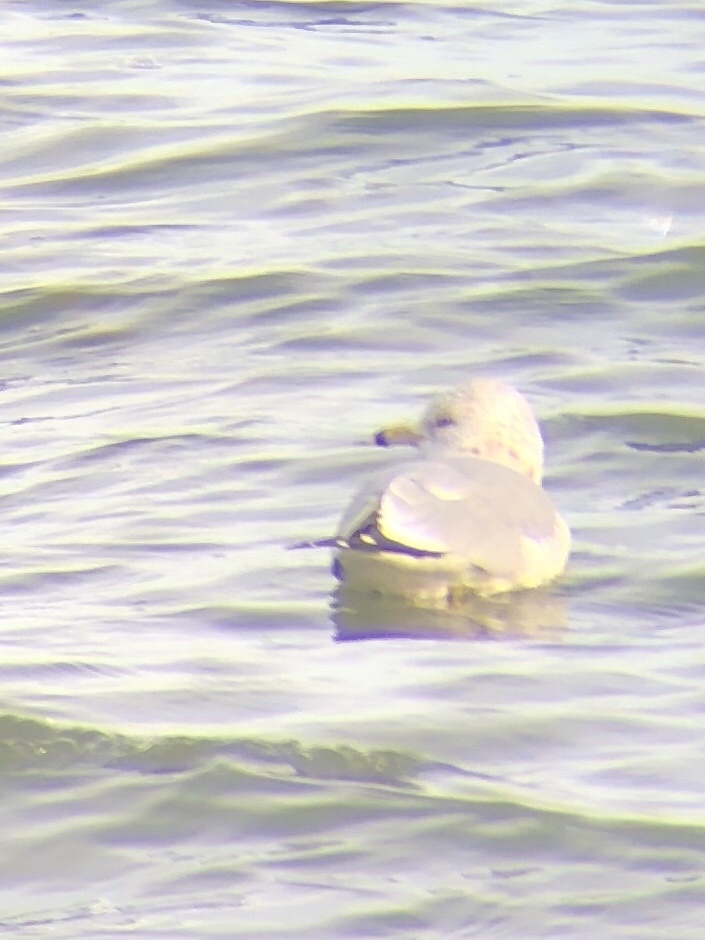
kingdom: Animalia
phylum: Chordata
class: Aves
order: Charadriiformes
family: Laridae
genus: Larus
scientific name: Larus delawarensis
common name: Ring-billed gull
